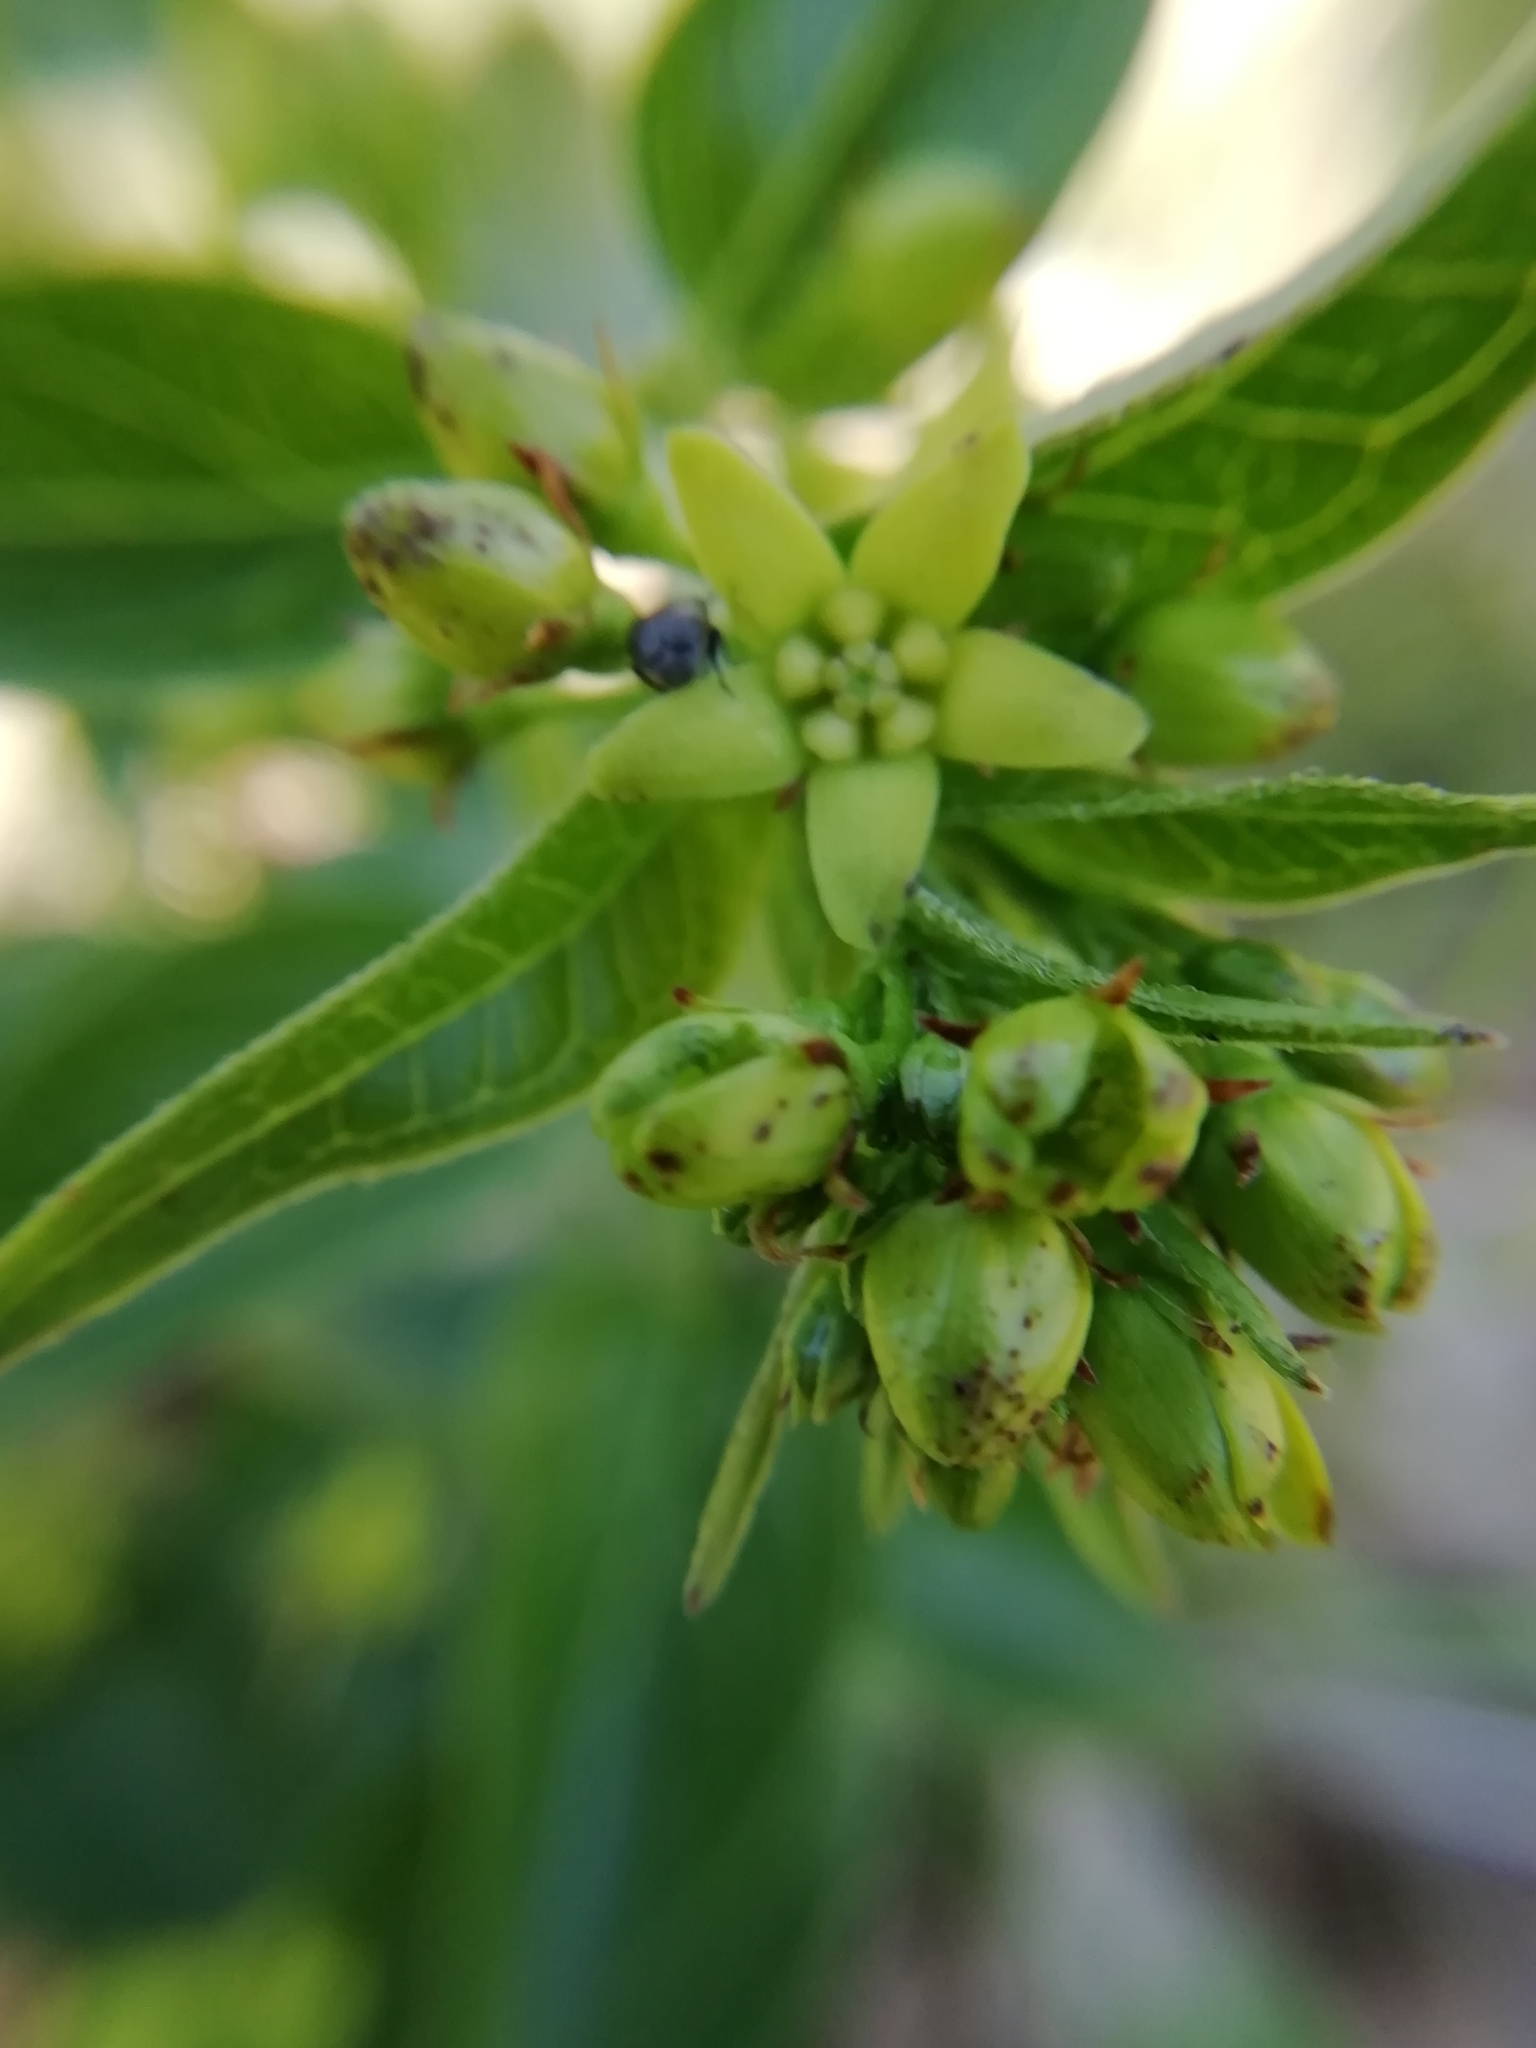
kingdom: Plantae
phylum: Tracheophyta
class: Magnoliopsida
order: Gentianales
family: Apocynaceae
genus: Vincetoxicum
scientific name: Vincetoxicum hirundinaria
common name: White swallowwort
